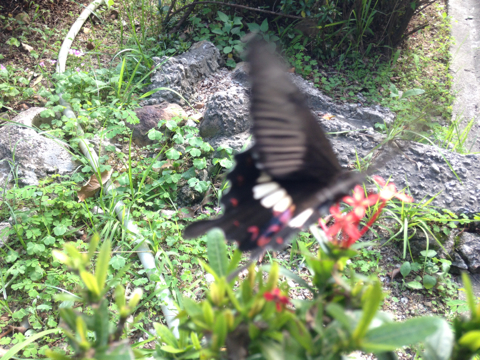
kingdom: Animalia
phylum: Arthropoda
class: Insecta
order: Lepidoptera
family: Papilionidae
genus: Papilio
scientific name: Papilio polytes
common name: Common mormon
